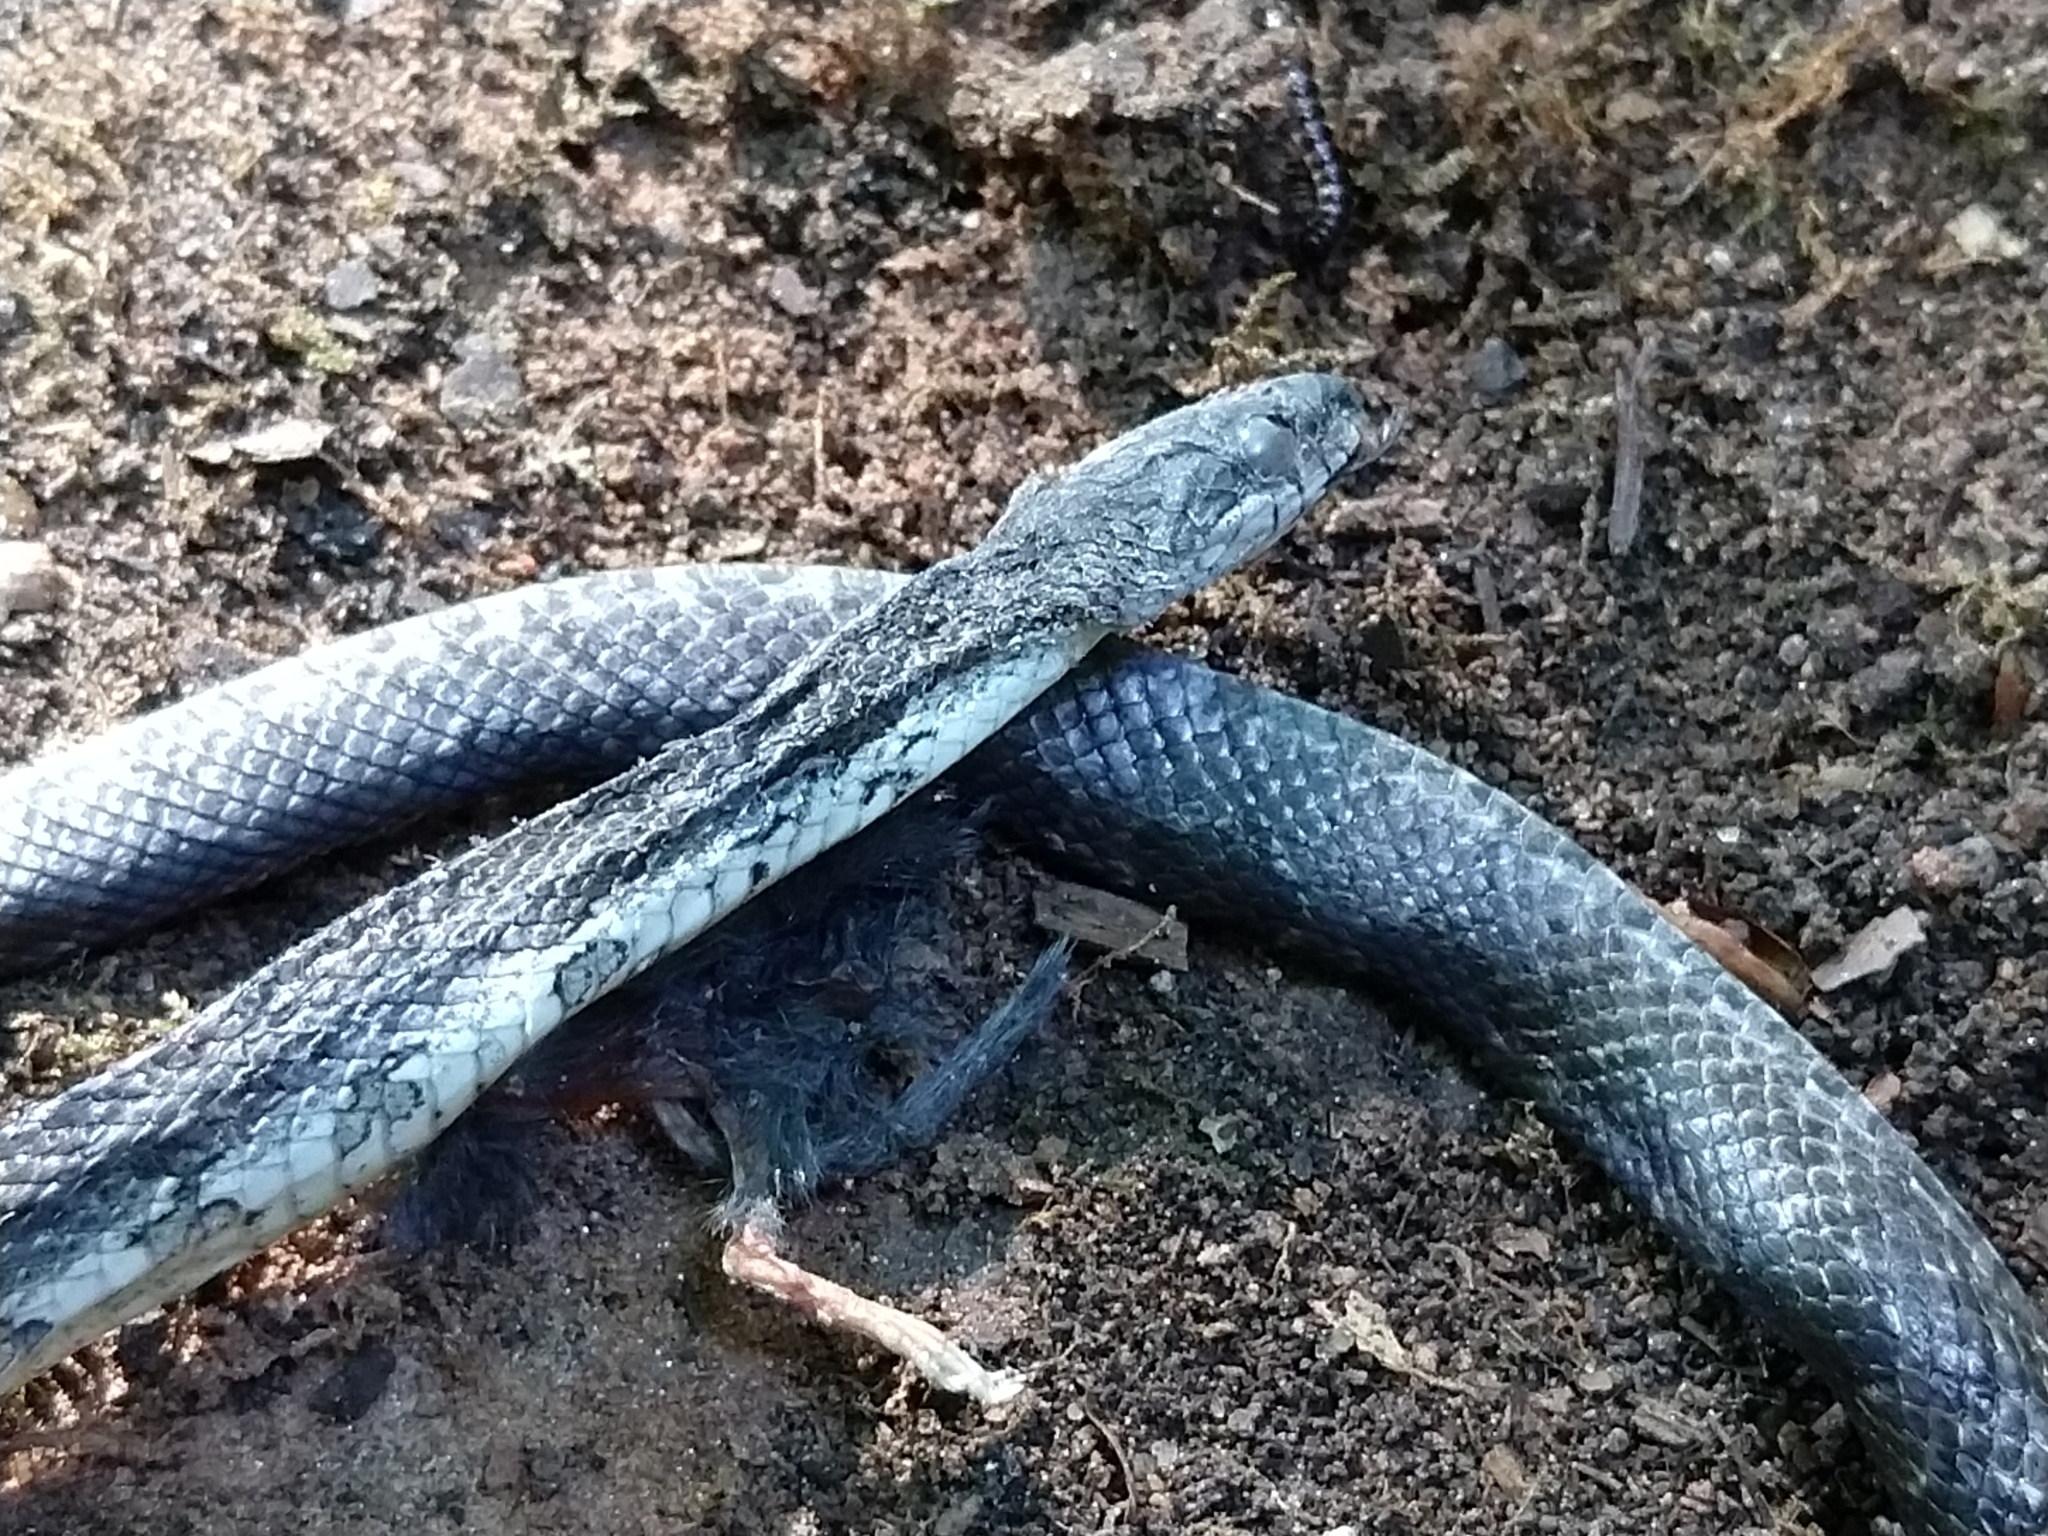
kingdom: Animalia
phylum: Chordata
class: Squamata
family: Colubridae
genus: Pantherophis
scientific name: Pantherophis alleghaniensis
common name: Eastern rat snake
